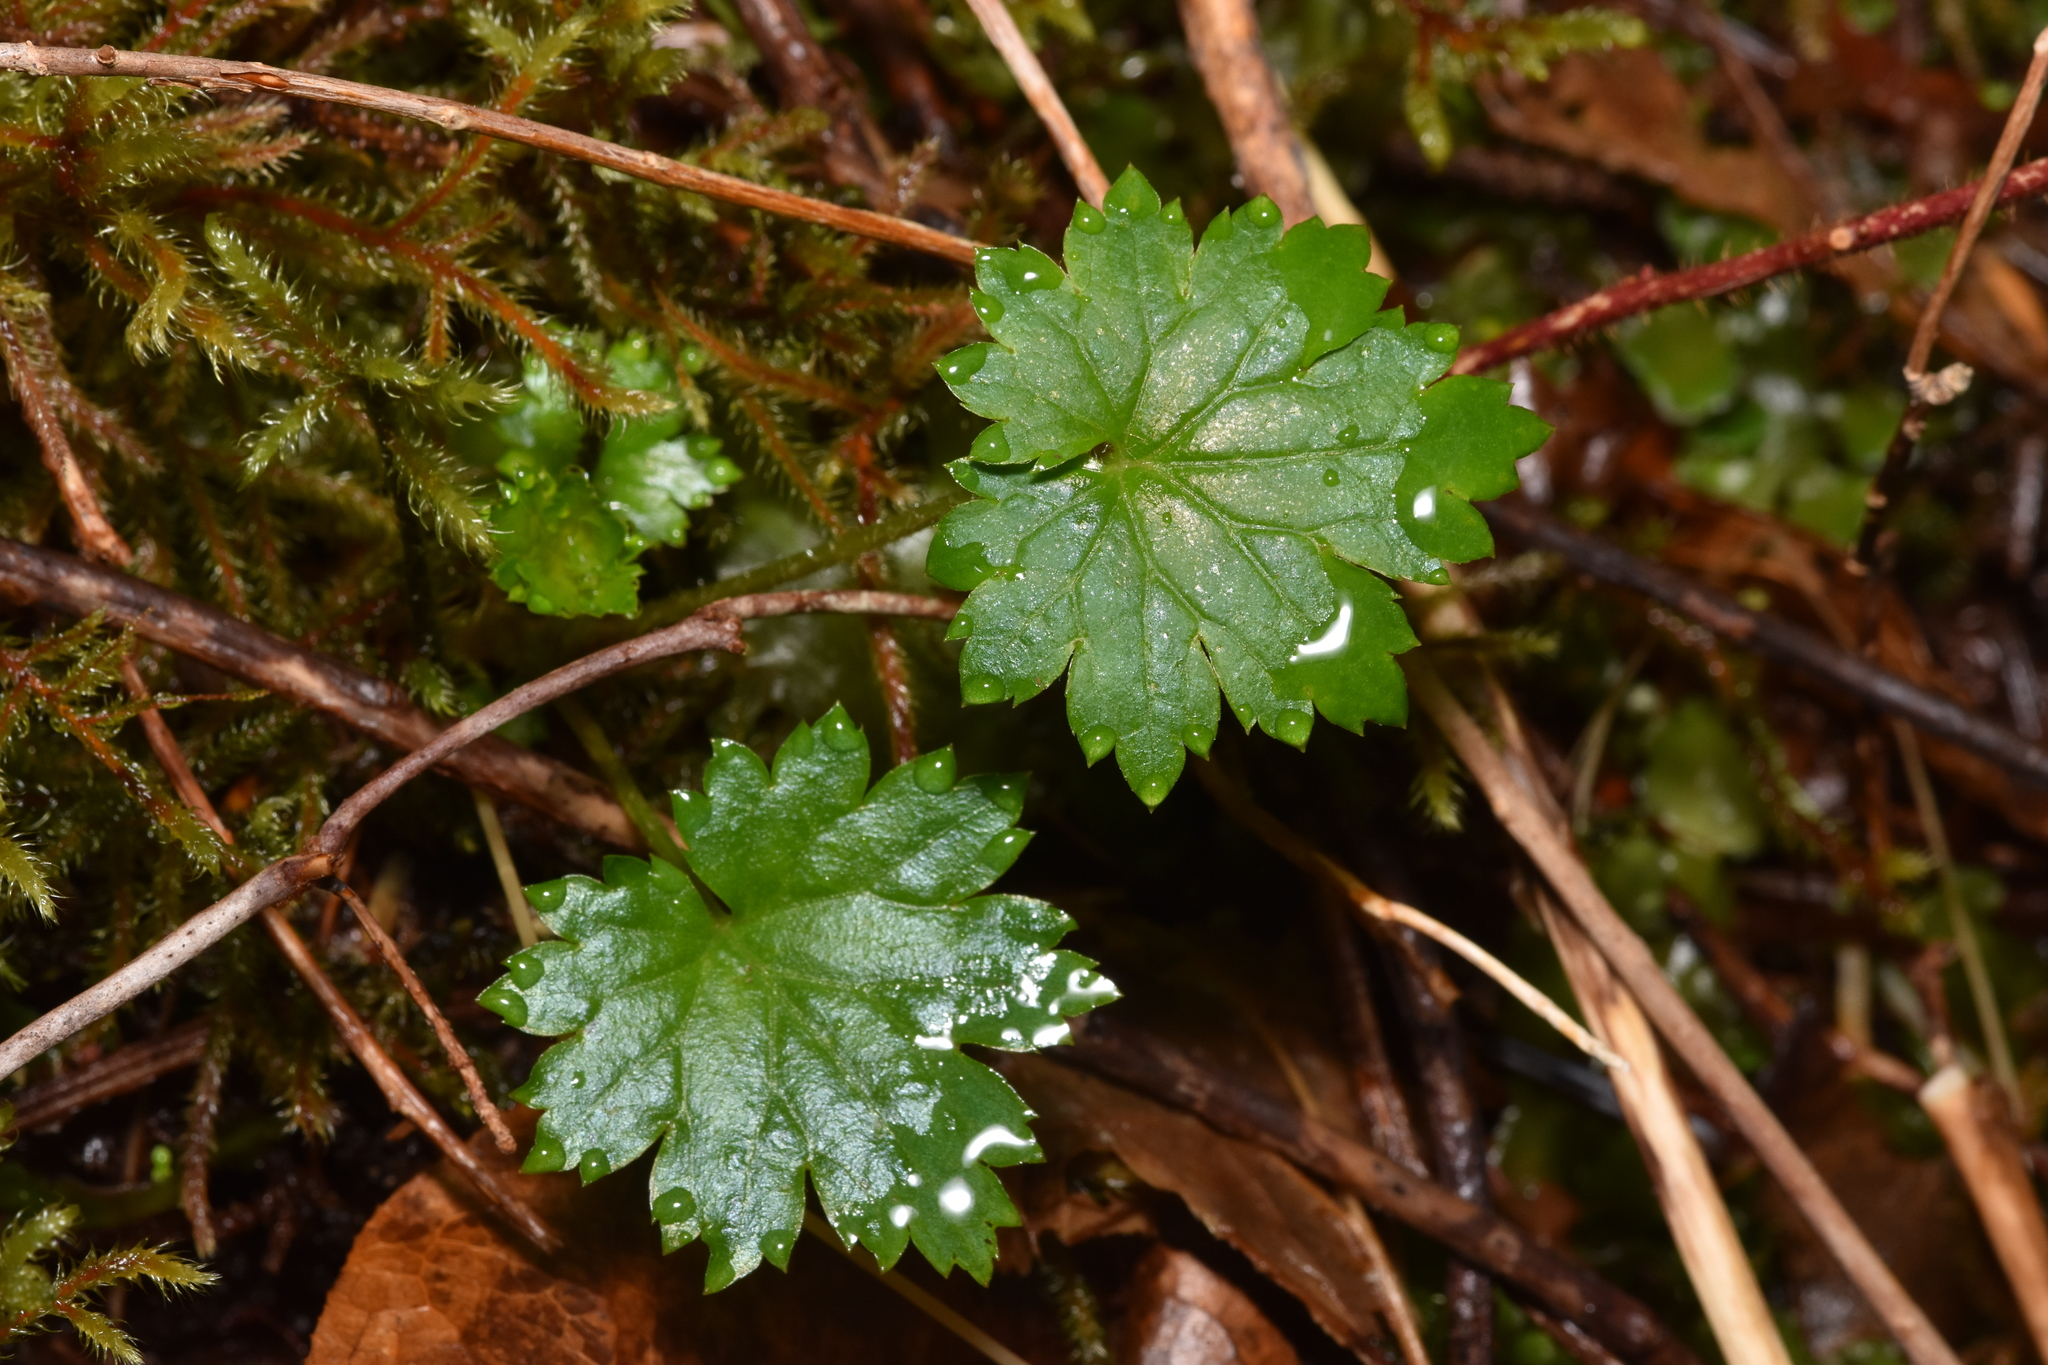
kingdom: Plantae
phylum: Tracheophyta
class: Magnoliopsida
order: Saxifragales
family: Saxifragaceae
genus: Boykinia
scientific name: Boykinia occidentalis
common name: Coast boykinia
